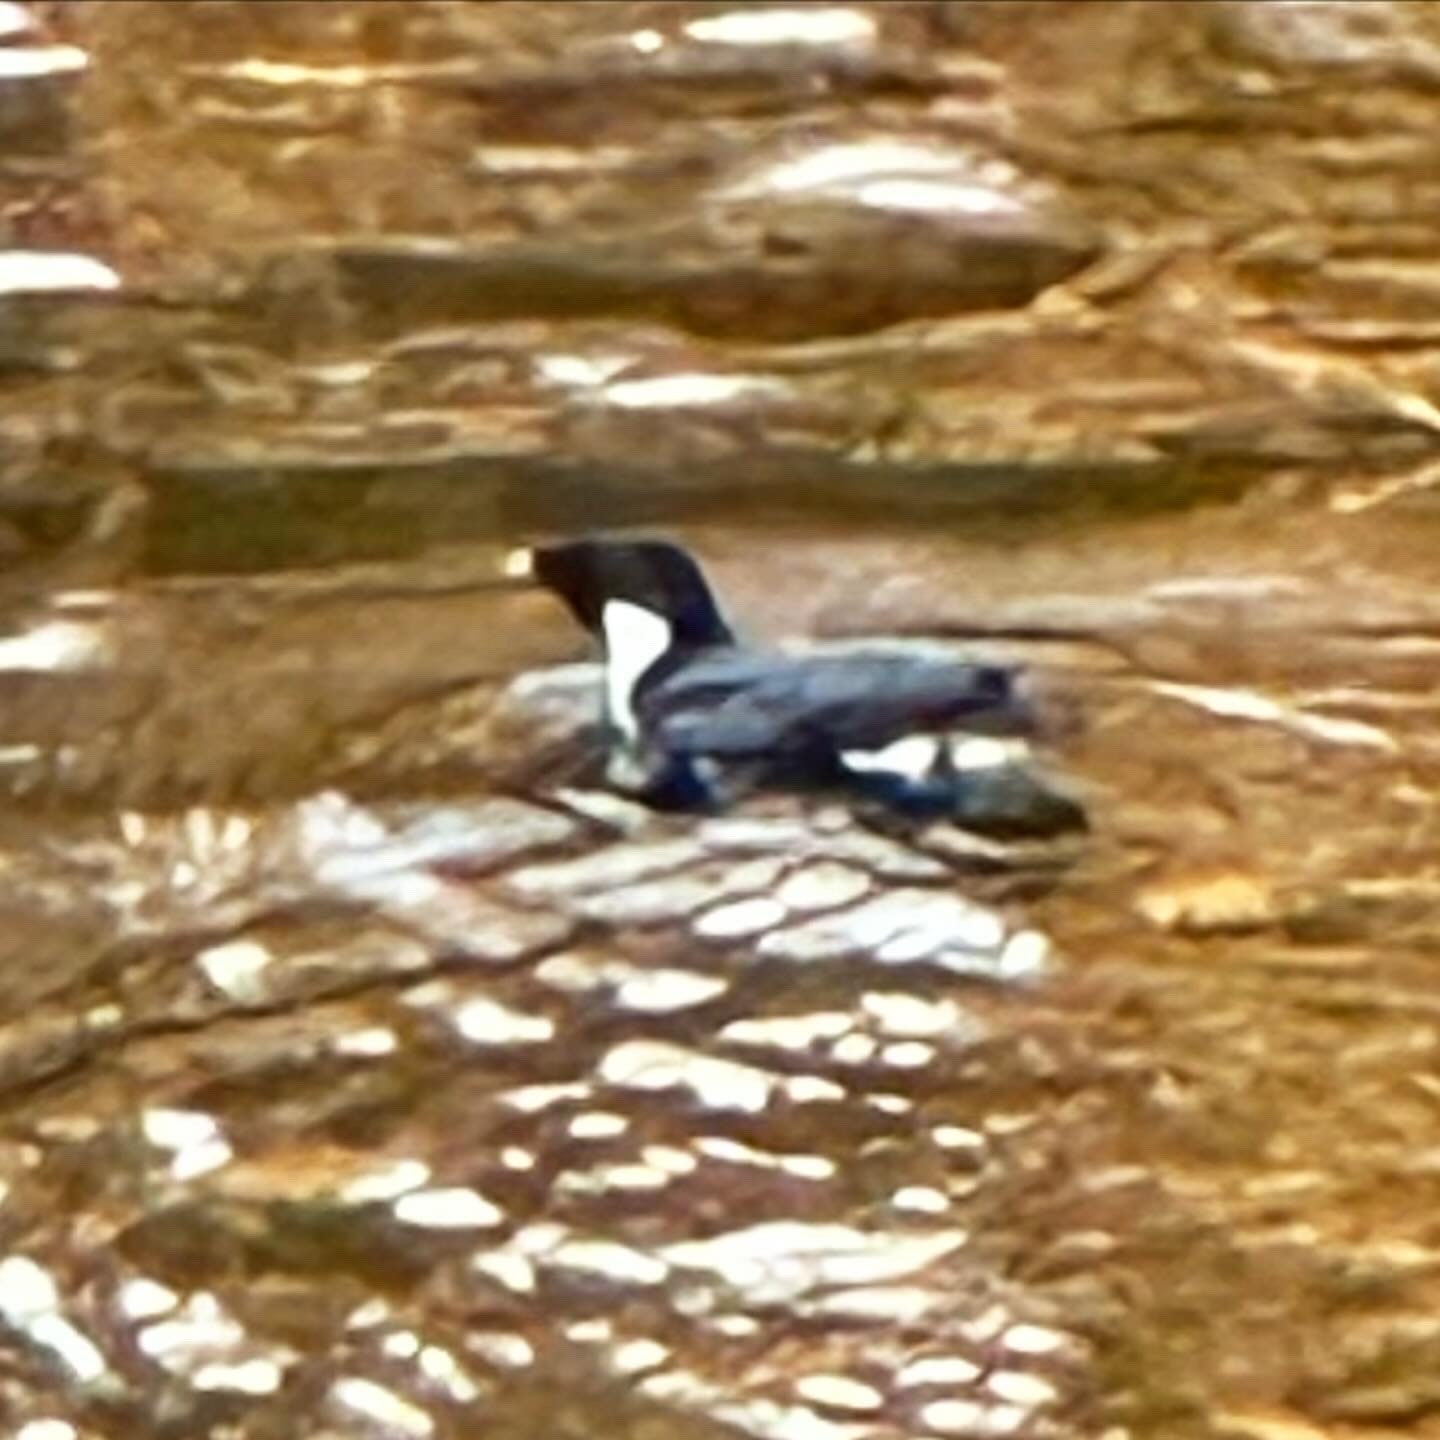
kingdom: Animalia
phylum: Chordata
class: Aves
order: Charadriiformes
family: Alcidae
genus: Synthliboramphus
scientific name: Synthliboramphus antiquus
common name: Ancient murrelet
